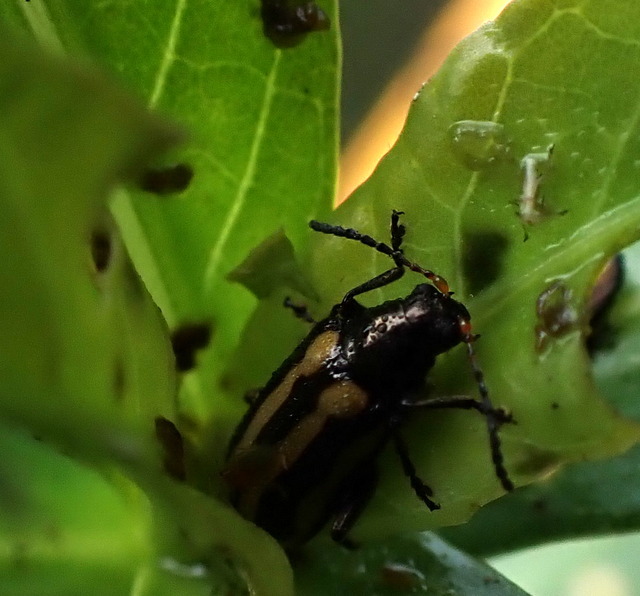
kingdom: Animalia
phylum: Arthropoda
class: Insecta
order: Coleoptera
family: Chrysomelidae
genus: Agasicles
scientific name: Agasicles hygrophila
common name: Alligatorweed flea beetle
